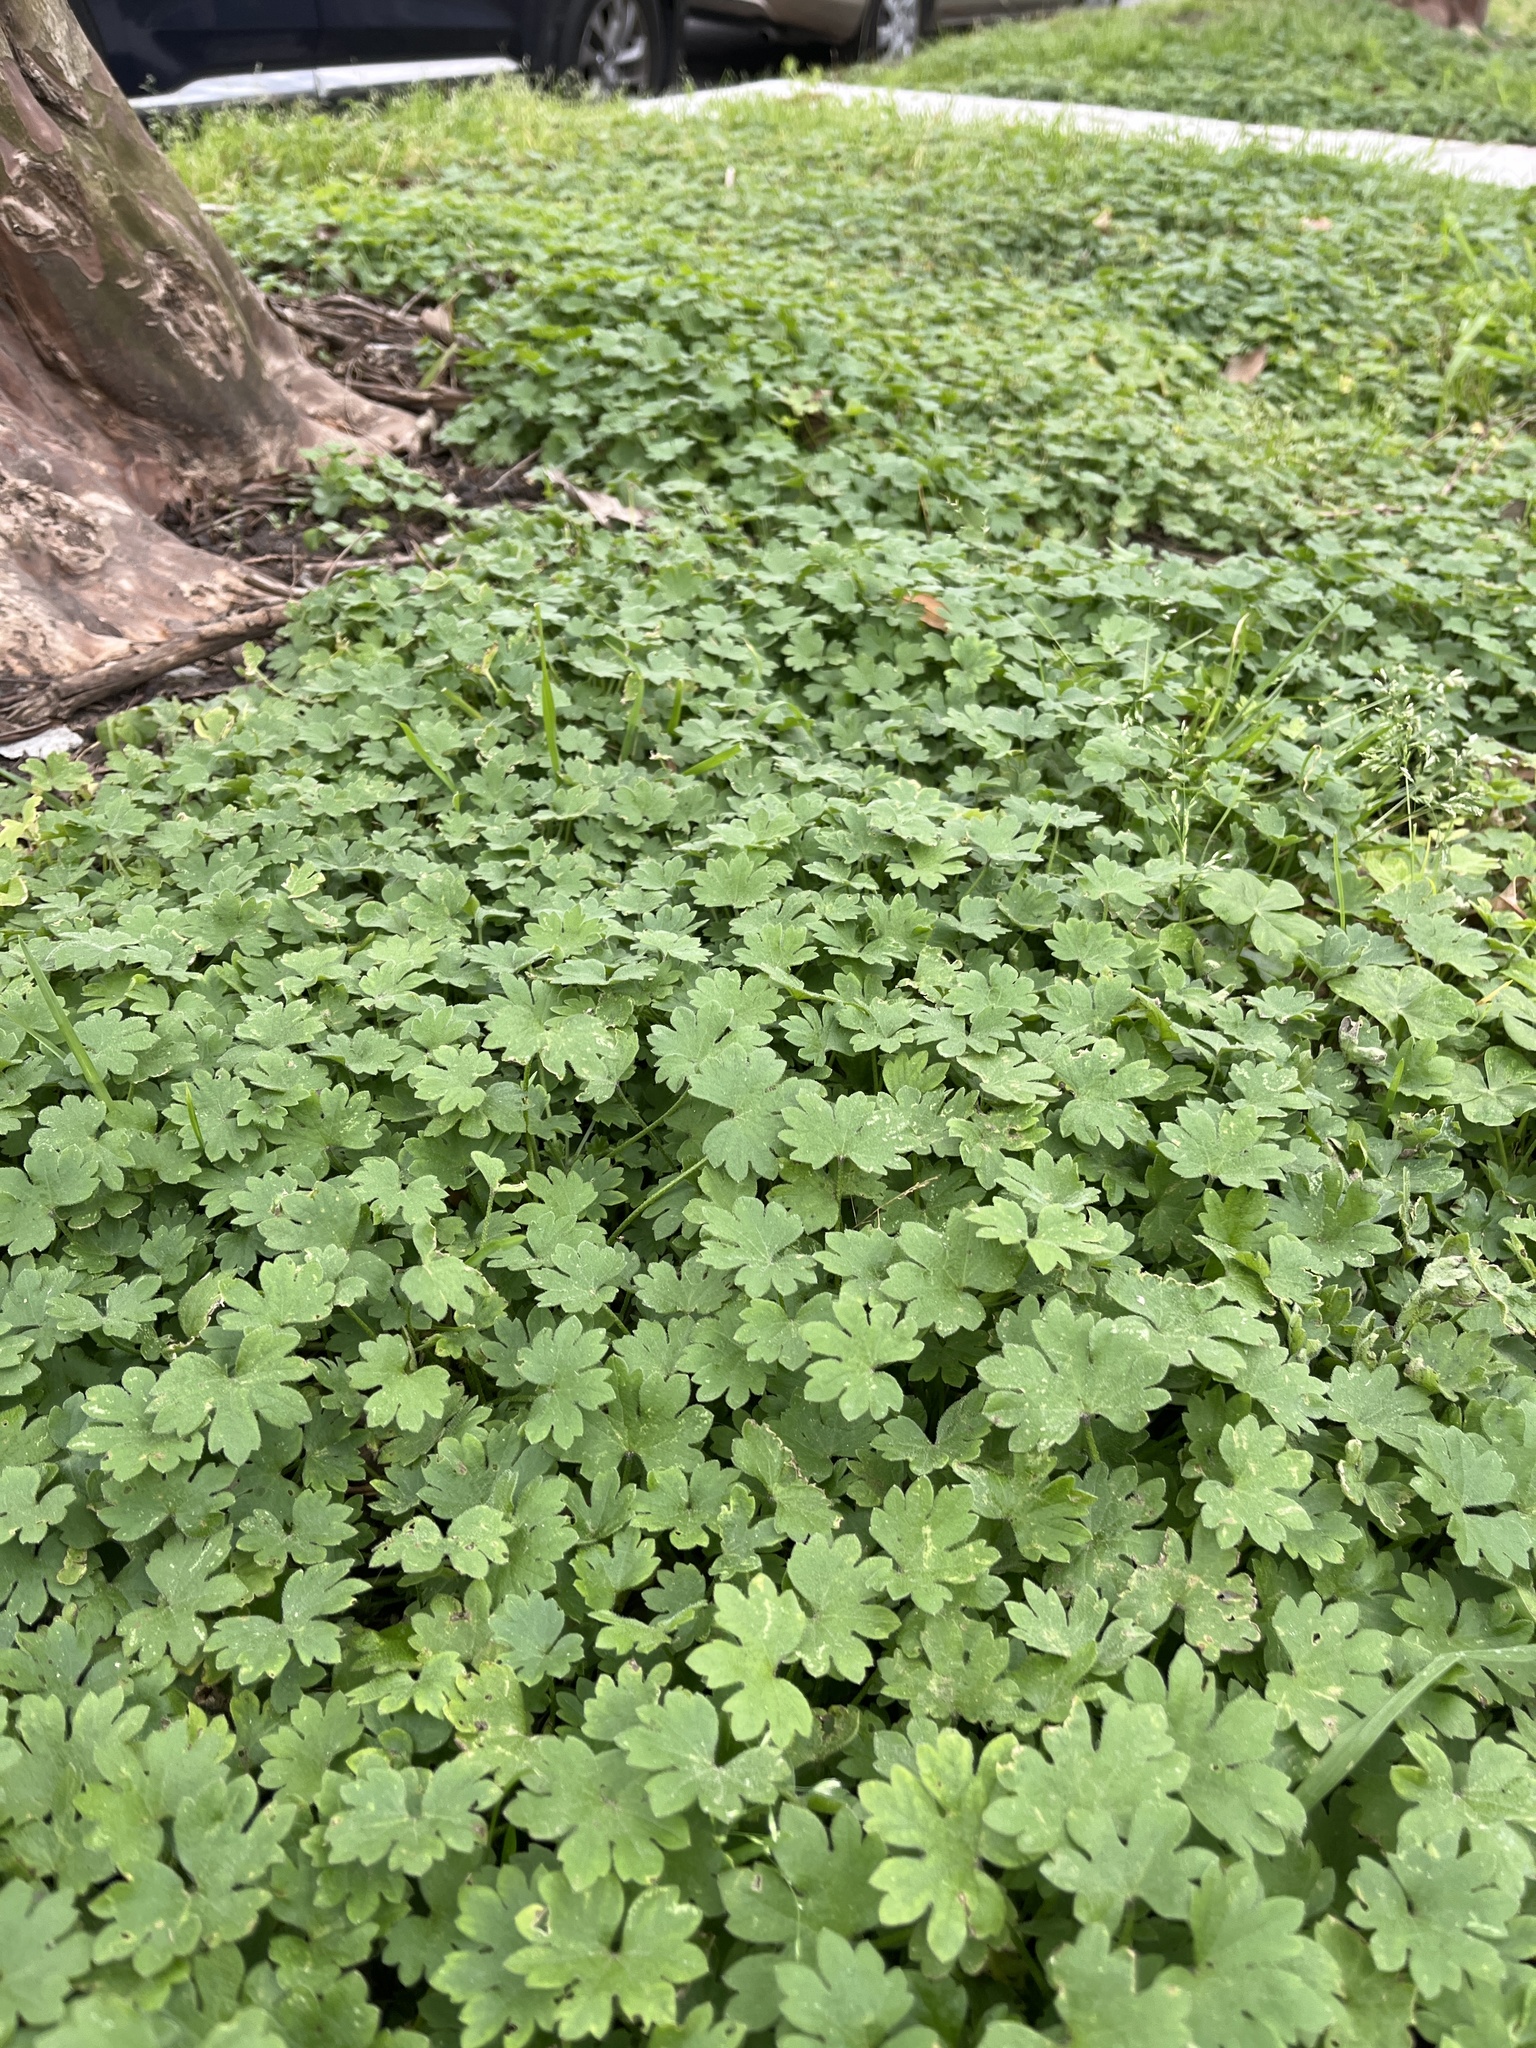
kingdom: Plantae
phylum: Tracheophyta
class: Magnoliopsida
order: Apiales
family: Apiaceae
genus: Bowlesia
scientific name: Bowlesia incana
